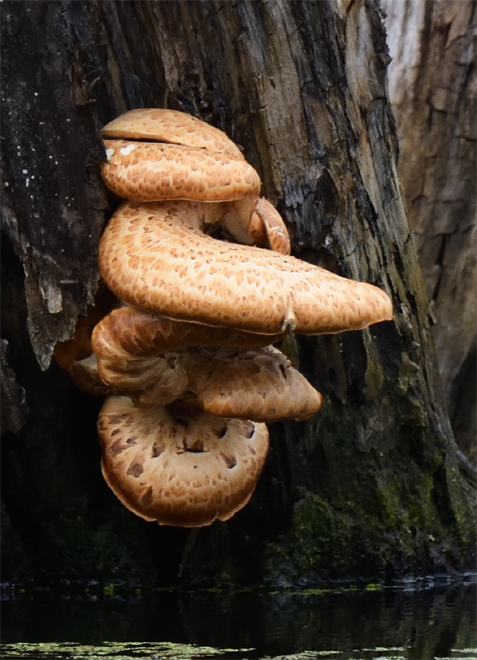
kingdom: Fungi
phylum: Basidiomycota
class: Agaricomycetes
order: Polyporales
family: Polyporaceae
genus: Cerioporus
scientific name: Cerioporus squamosus
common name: Dryad's saddle
